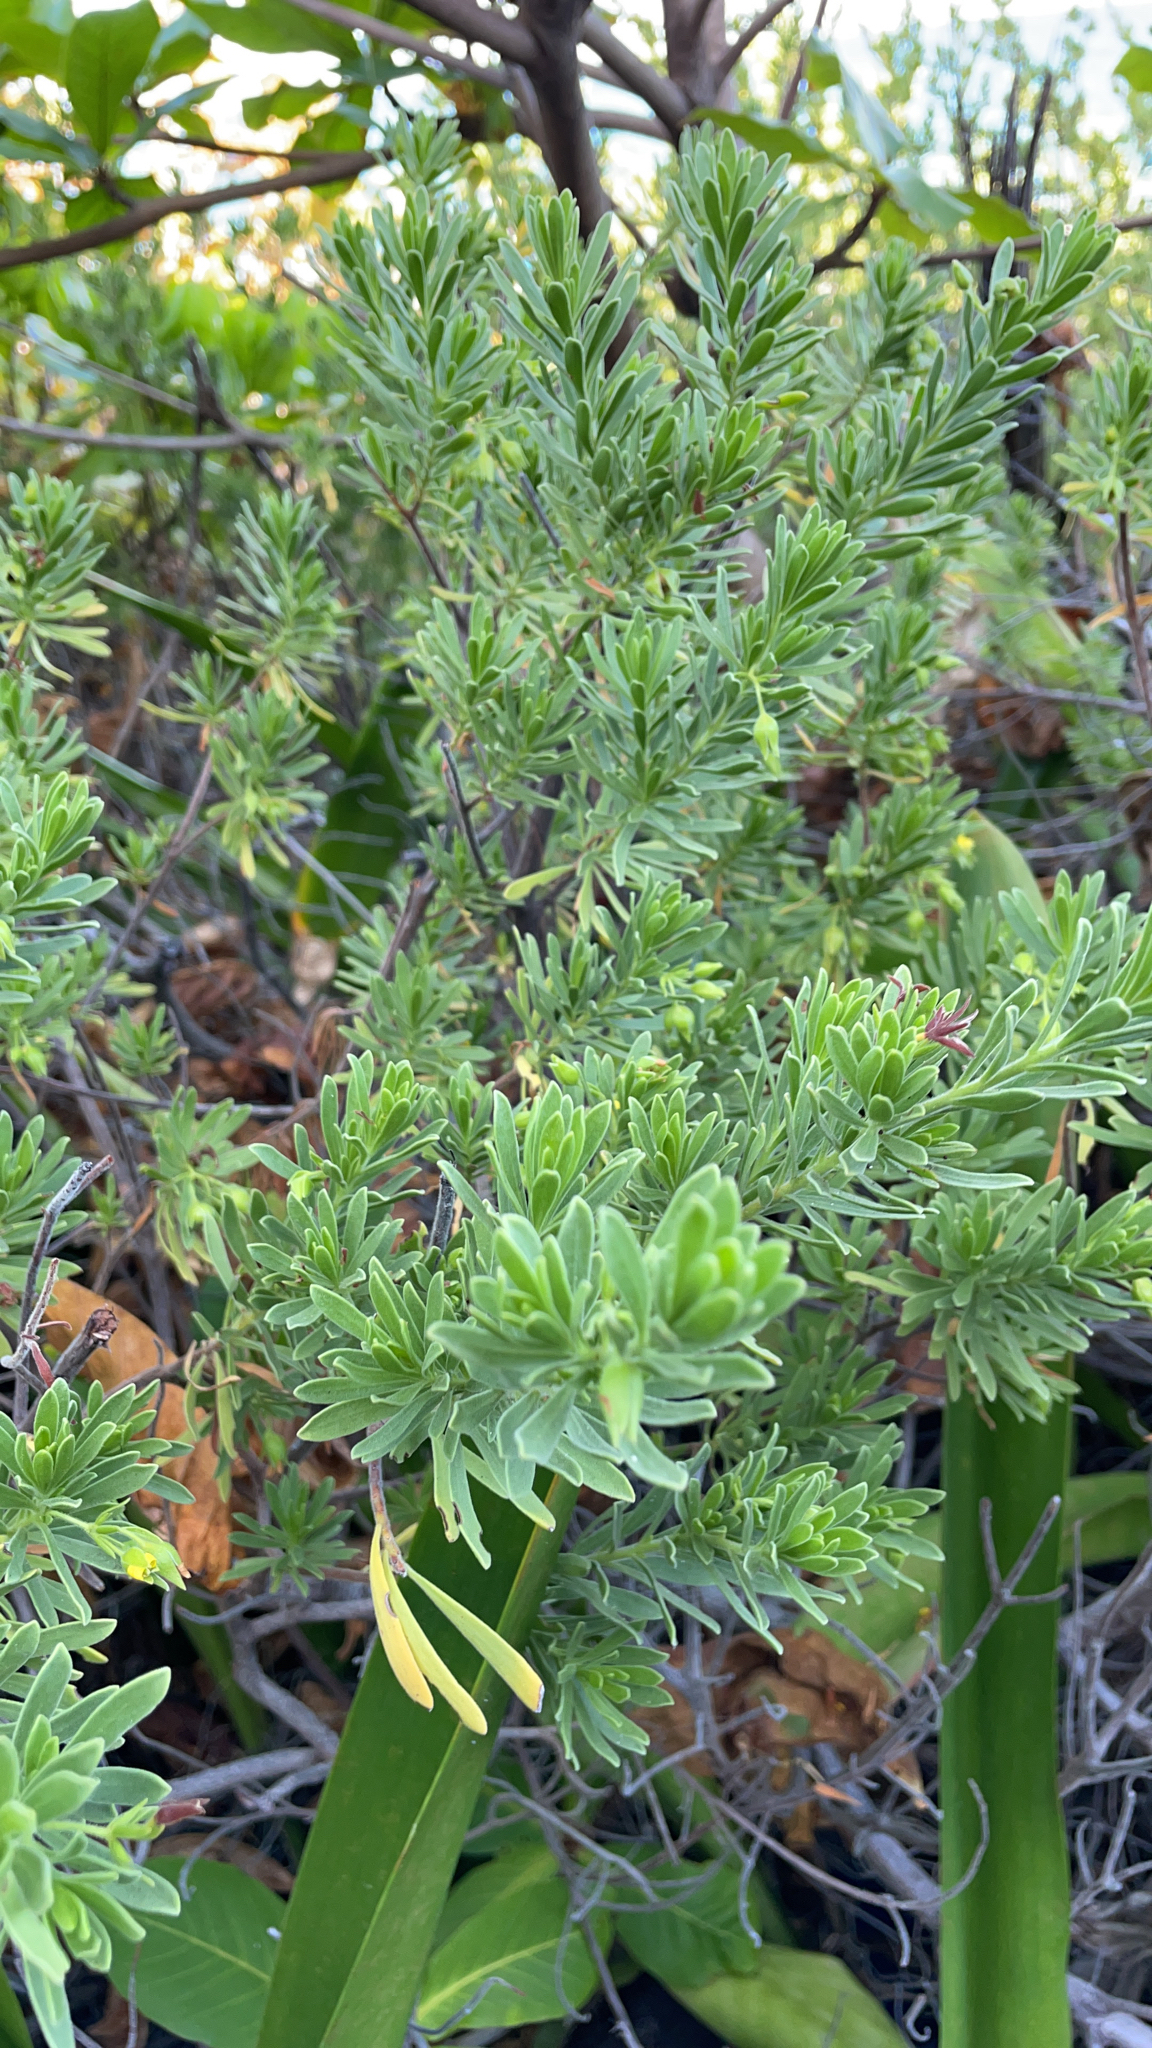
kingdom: Plantae
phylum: Tracheophyta
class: Magnoliopsida
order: Fabales
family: Surianaceae
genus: Suriana
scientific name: Suriana maritima
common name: Bay-cedar
